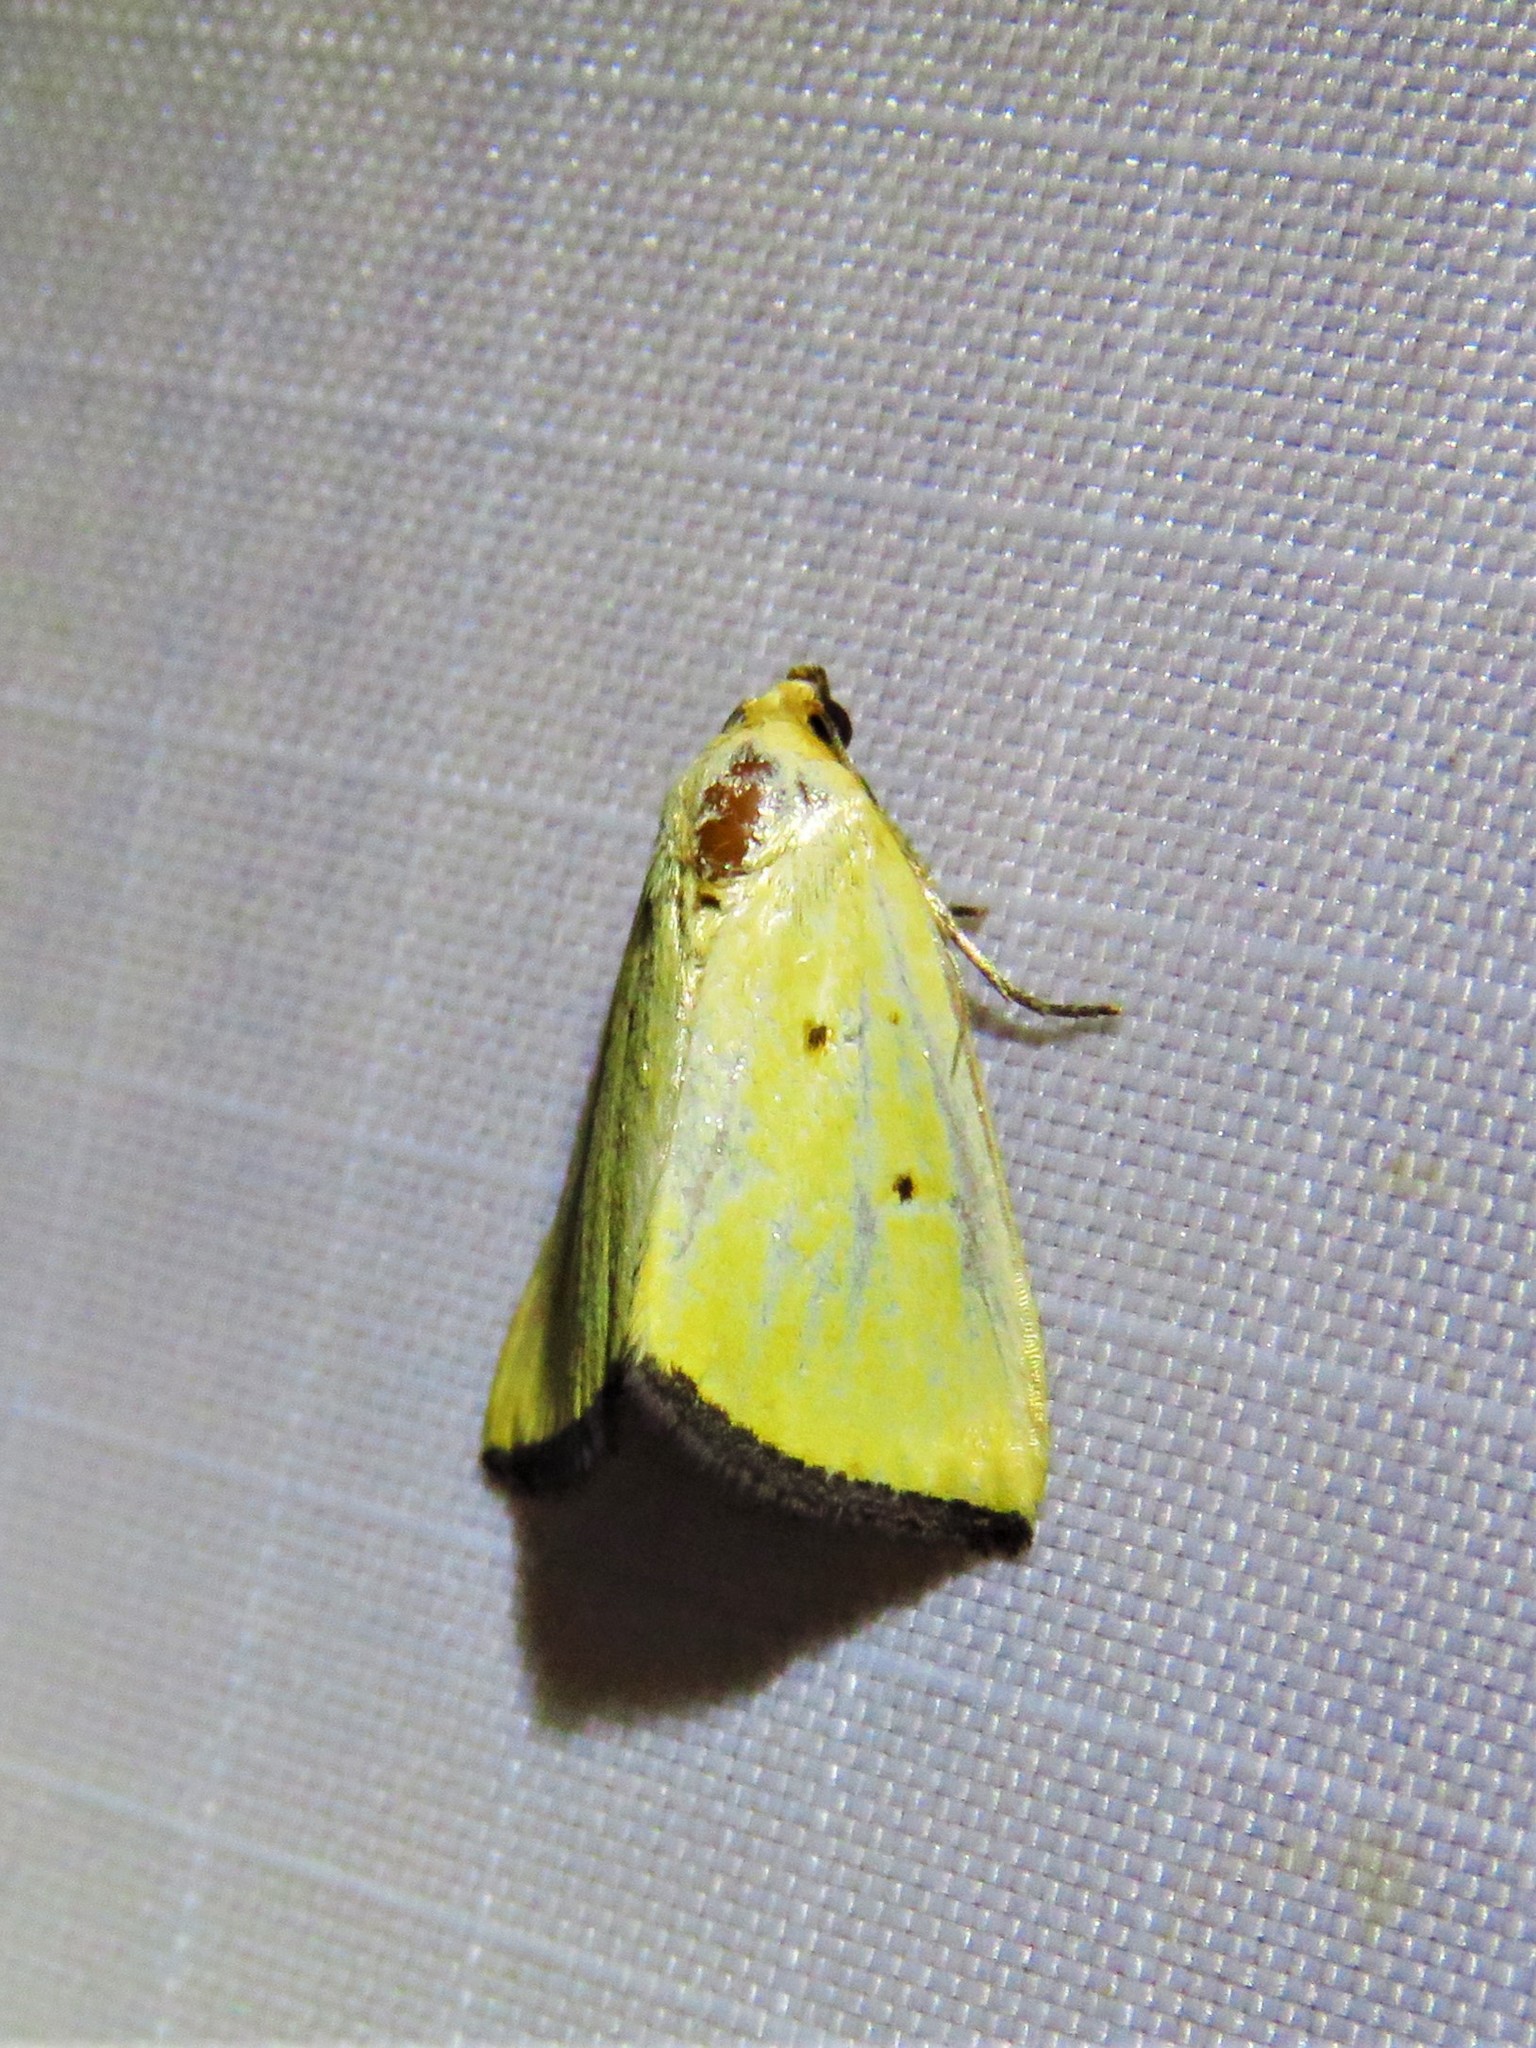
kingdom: Animalia
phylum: Arthropoda
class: Insecta
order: Lepidoptera
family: Noctuidae
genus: Marimatha
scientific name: Marimatha nigrofimbria
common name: Black-bordered lemon moth
